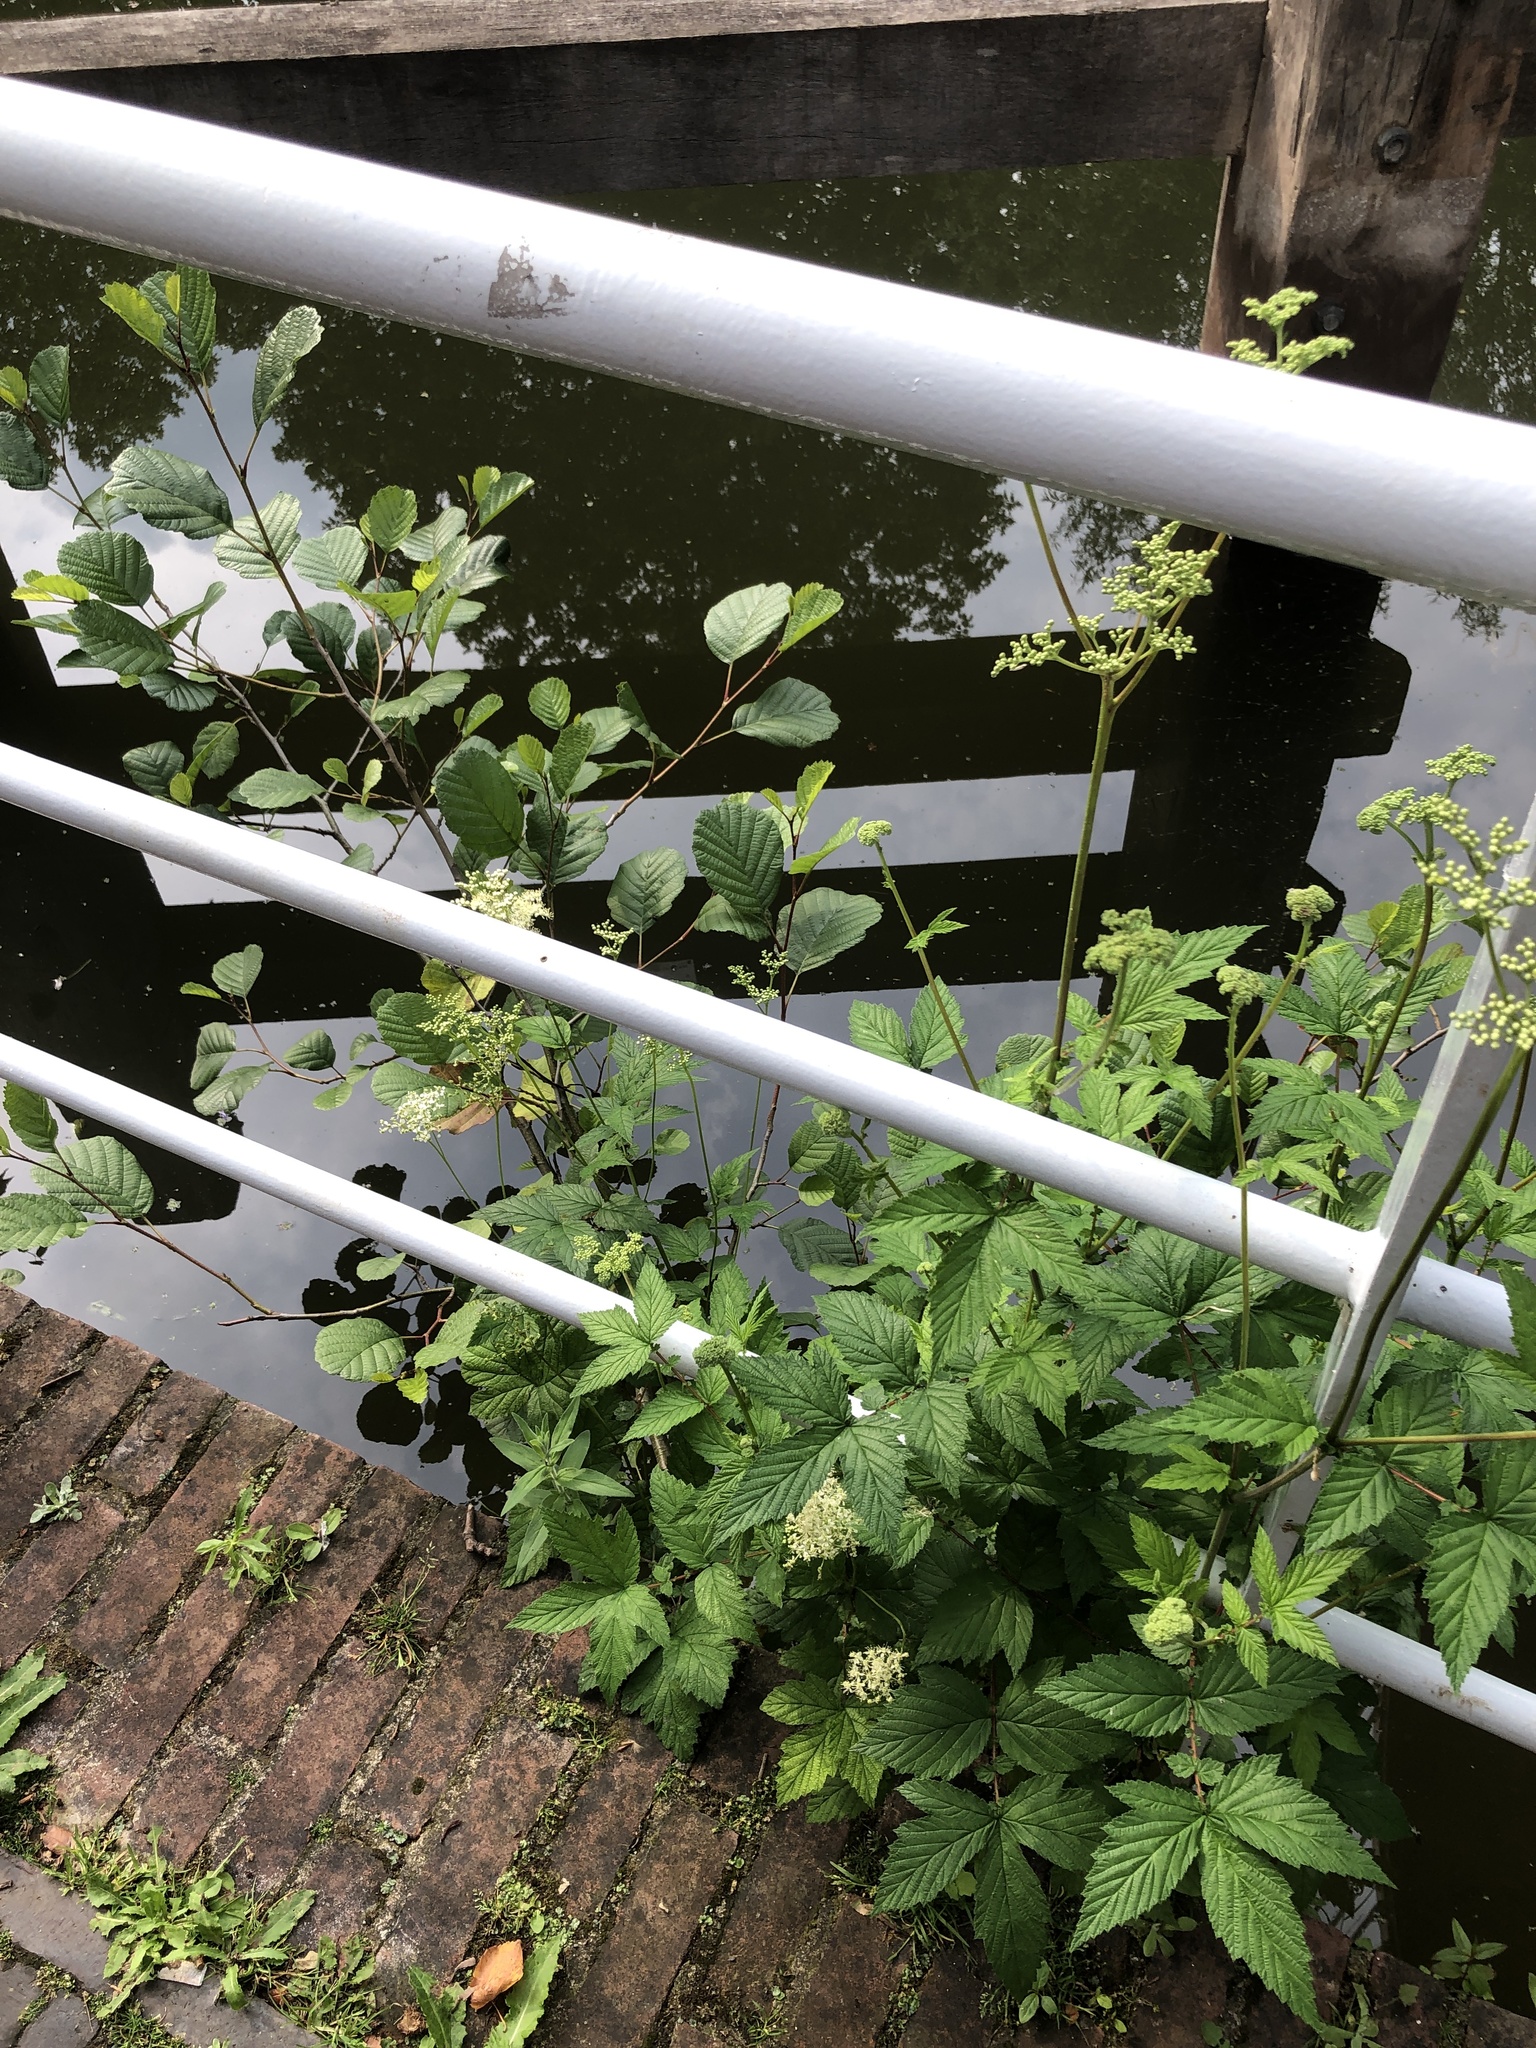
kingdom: Plantae
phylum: Tracheophyta
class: Magnoliopsida
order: Rosales
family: Rosaceae
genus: Filipendula
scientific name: Filipendula ulmaria
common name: Meadowsweet
